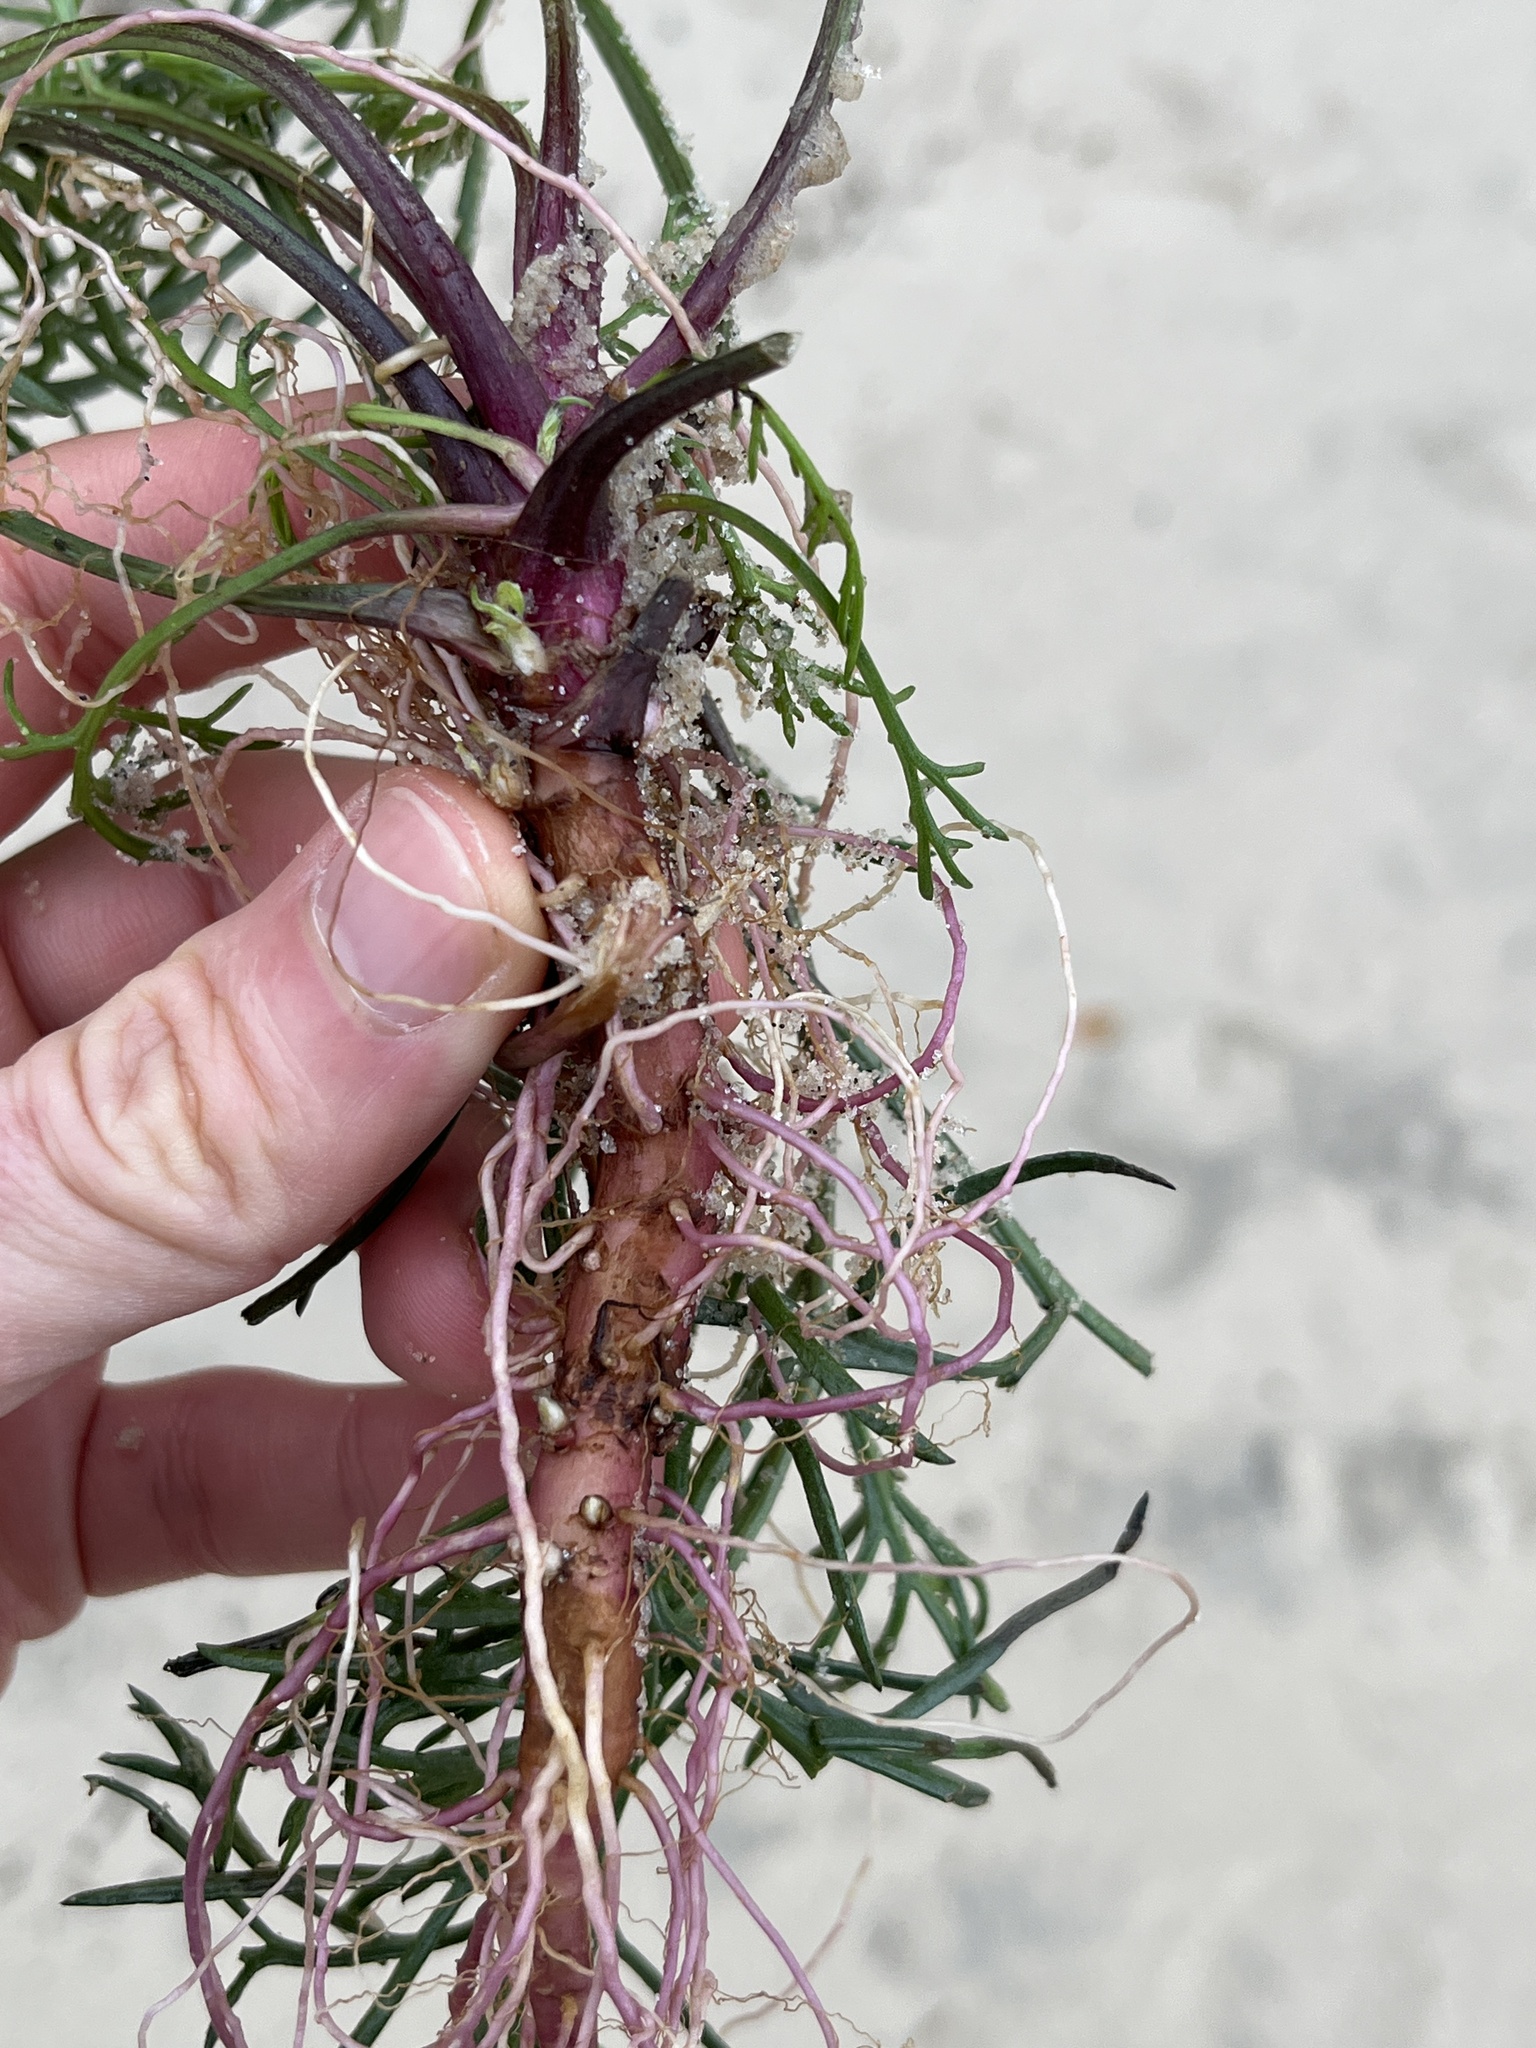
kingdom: Plantae
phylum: Tracheophyta
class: Magnoliopsida
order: Asterales
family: Asteraceae
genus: Artemisia
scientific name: Artemisia campestris
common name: Field wormwood
